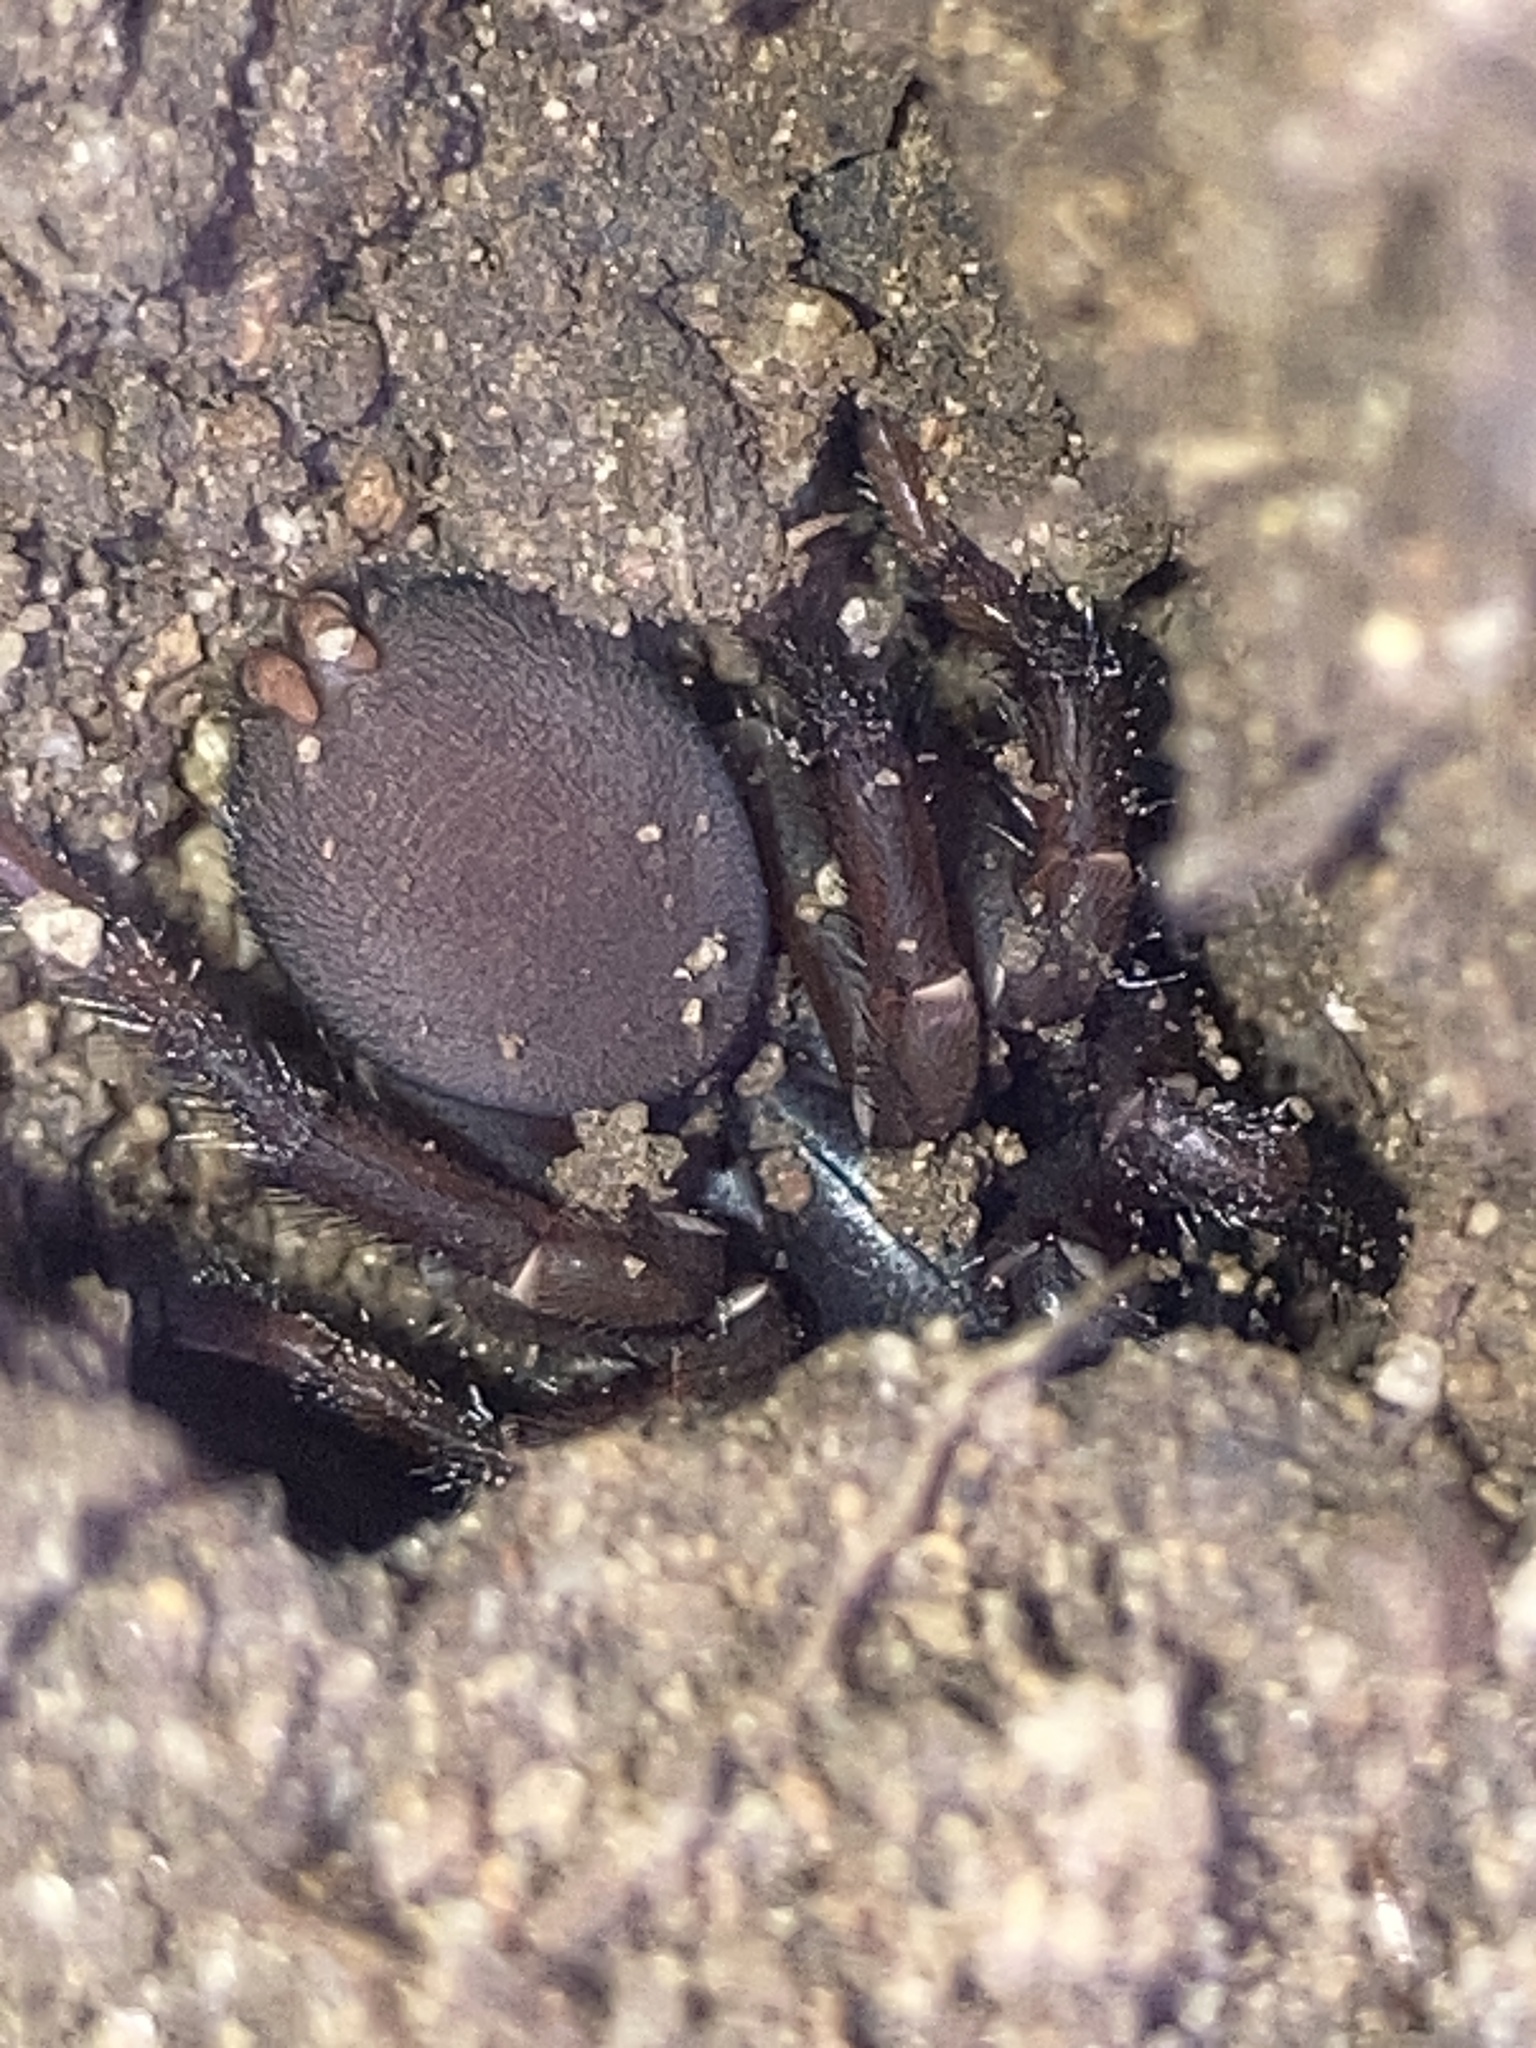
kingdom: Animalia
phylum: Arthropoda
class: Arachnida
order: Araneae
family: Microstigmatidae
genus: Kiama
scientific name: Kiama lachrymoides
